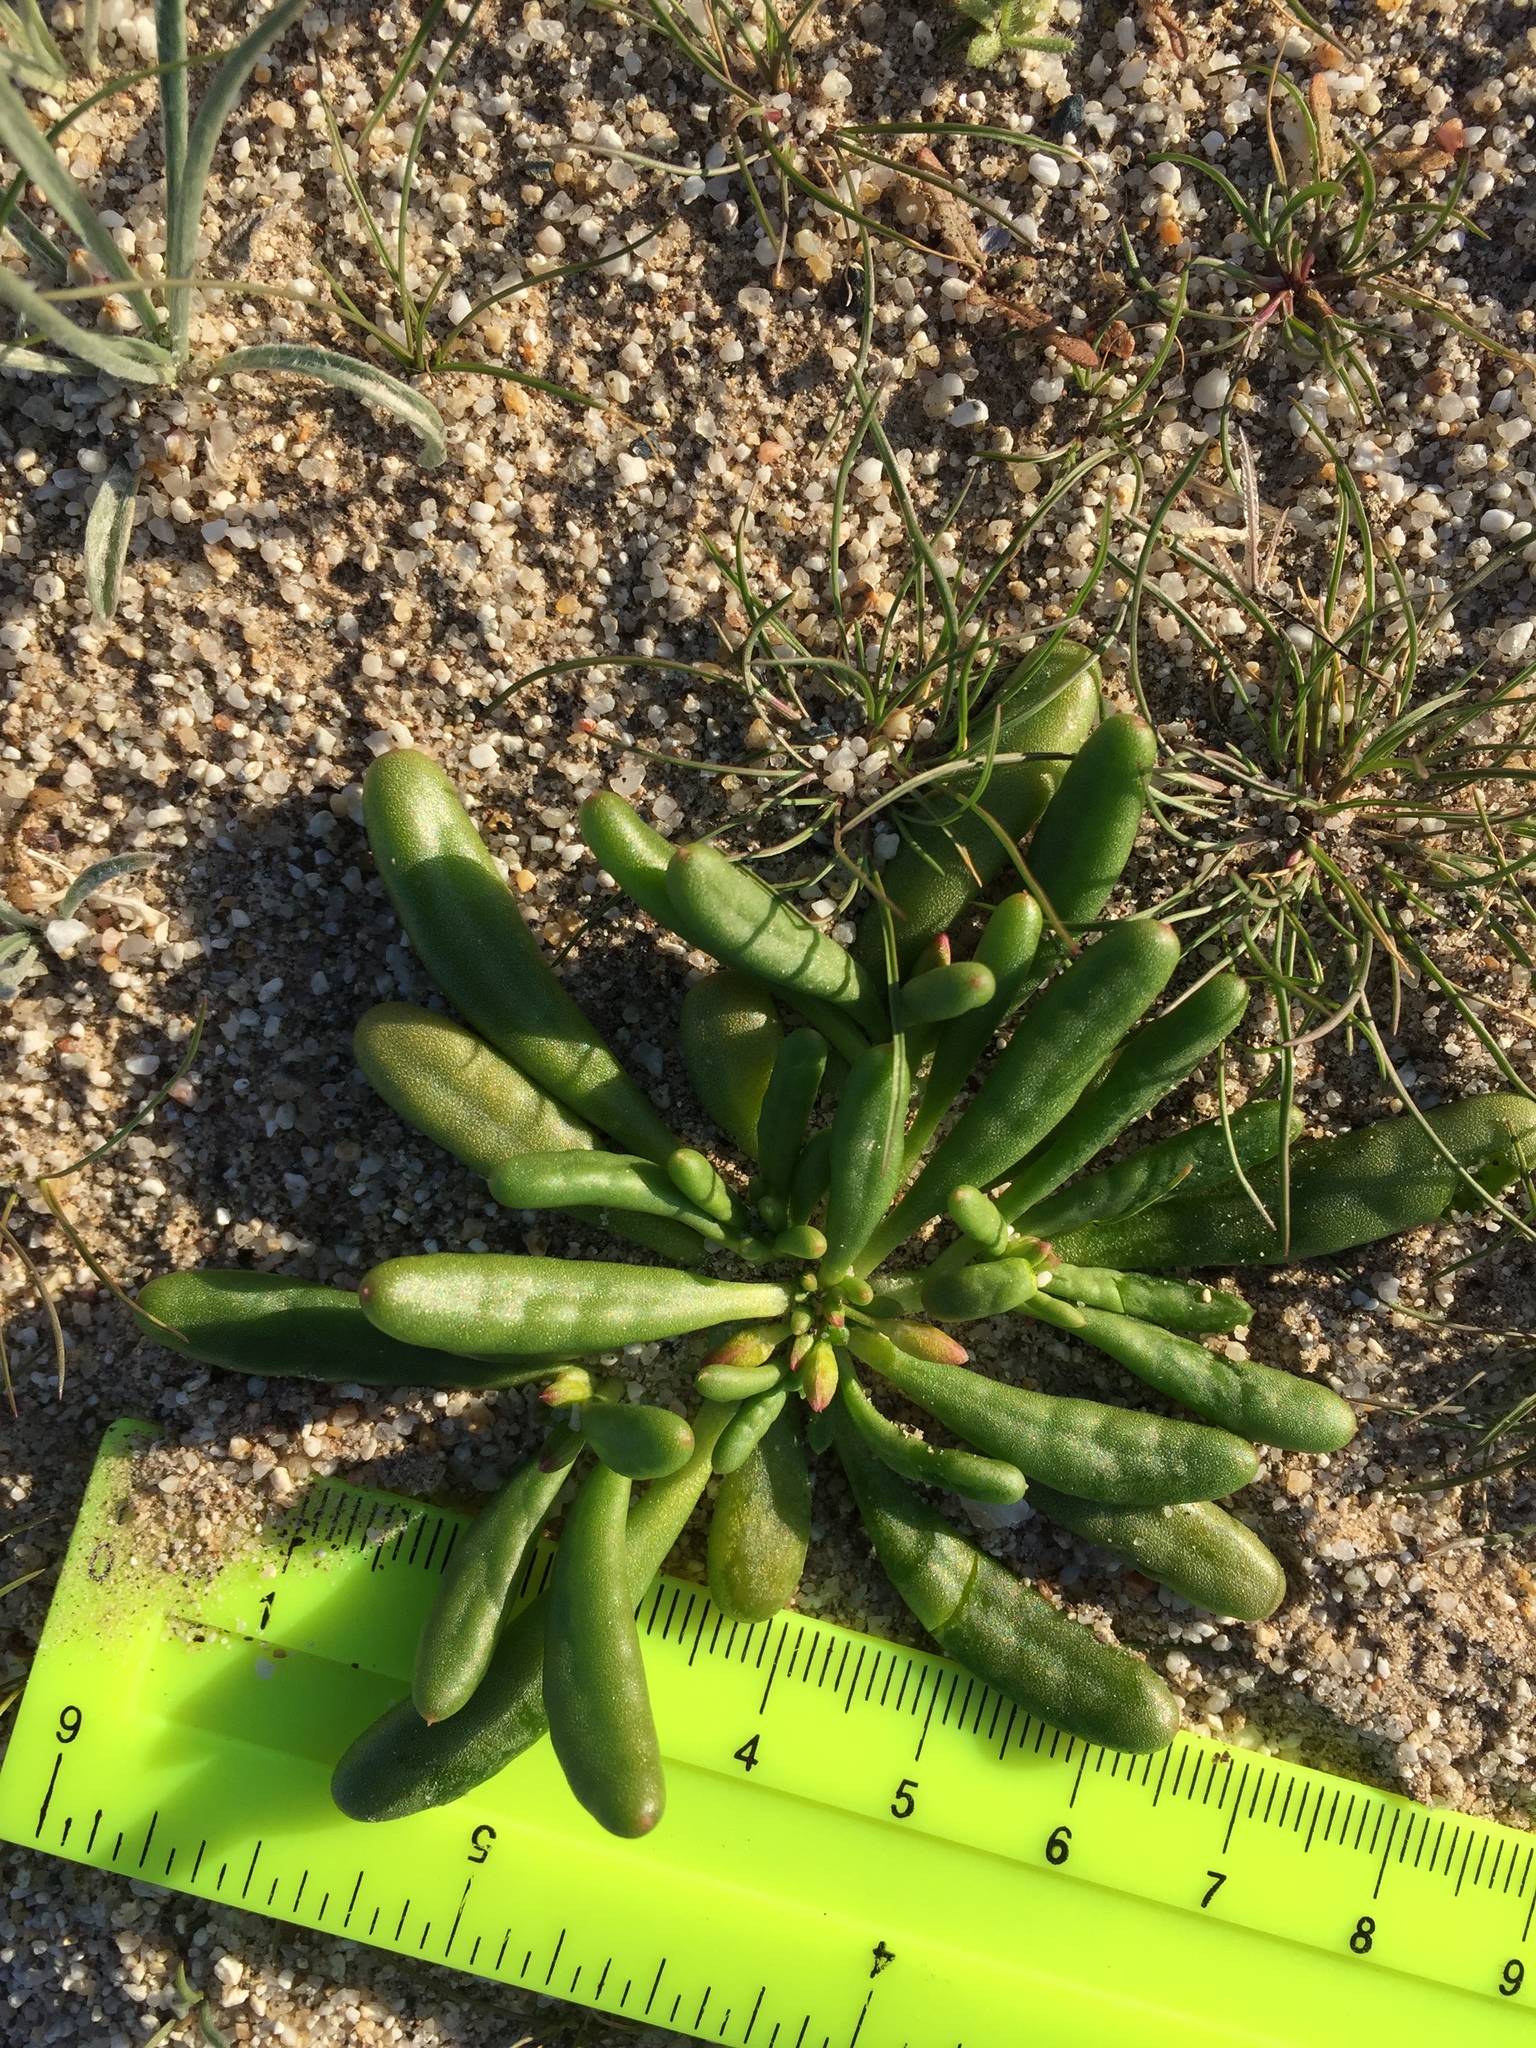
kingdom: Plantae
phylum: Tracheophyta
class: Magnoliopsida
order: Caryophyllales
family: Montiaceae
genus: Thingia
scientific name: Thingia ambigua
